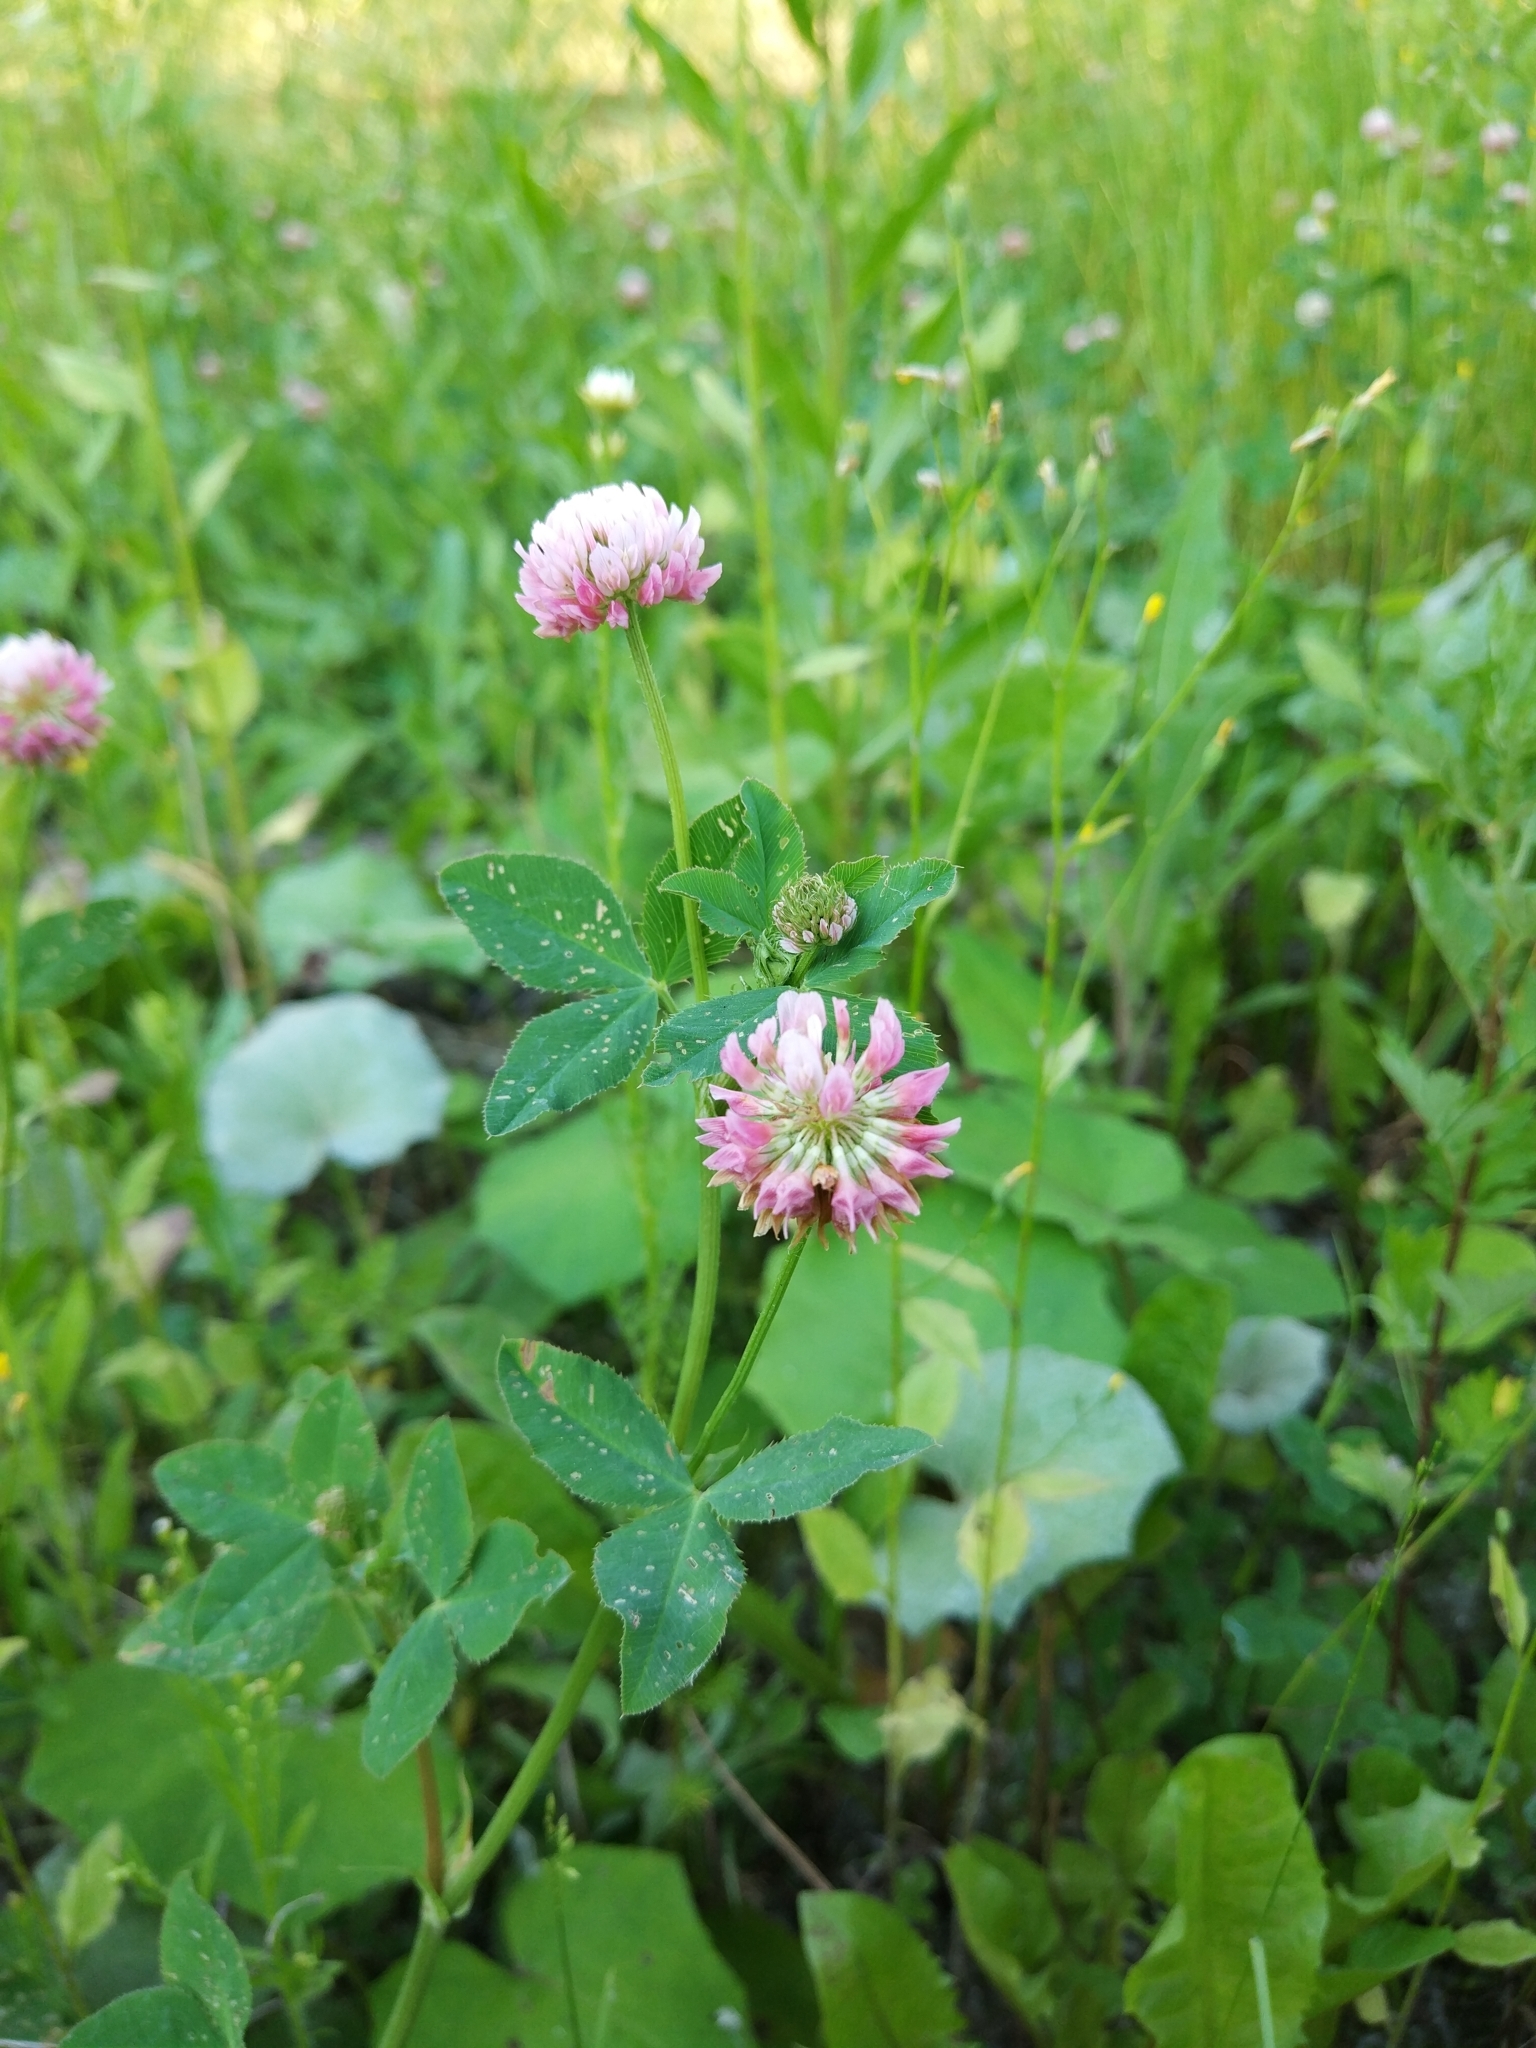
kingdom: Plantae
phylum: Tracheophyta
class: Magnoliopsida
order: Fabales
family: Fabaceae
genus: Trifolium
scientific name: Trifolium hybridum
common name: Alsike clover
